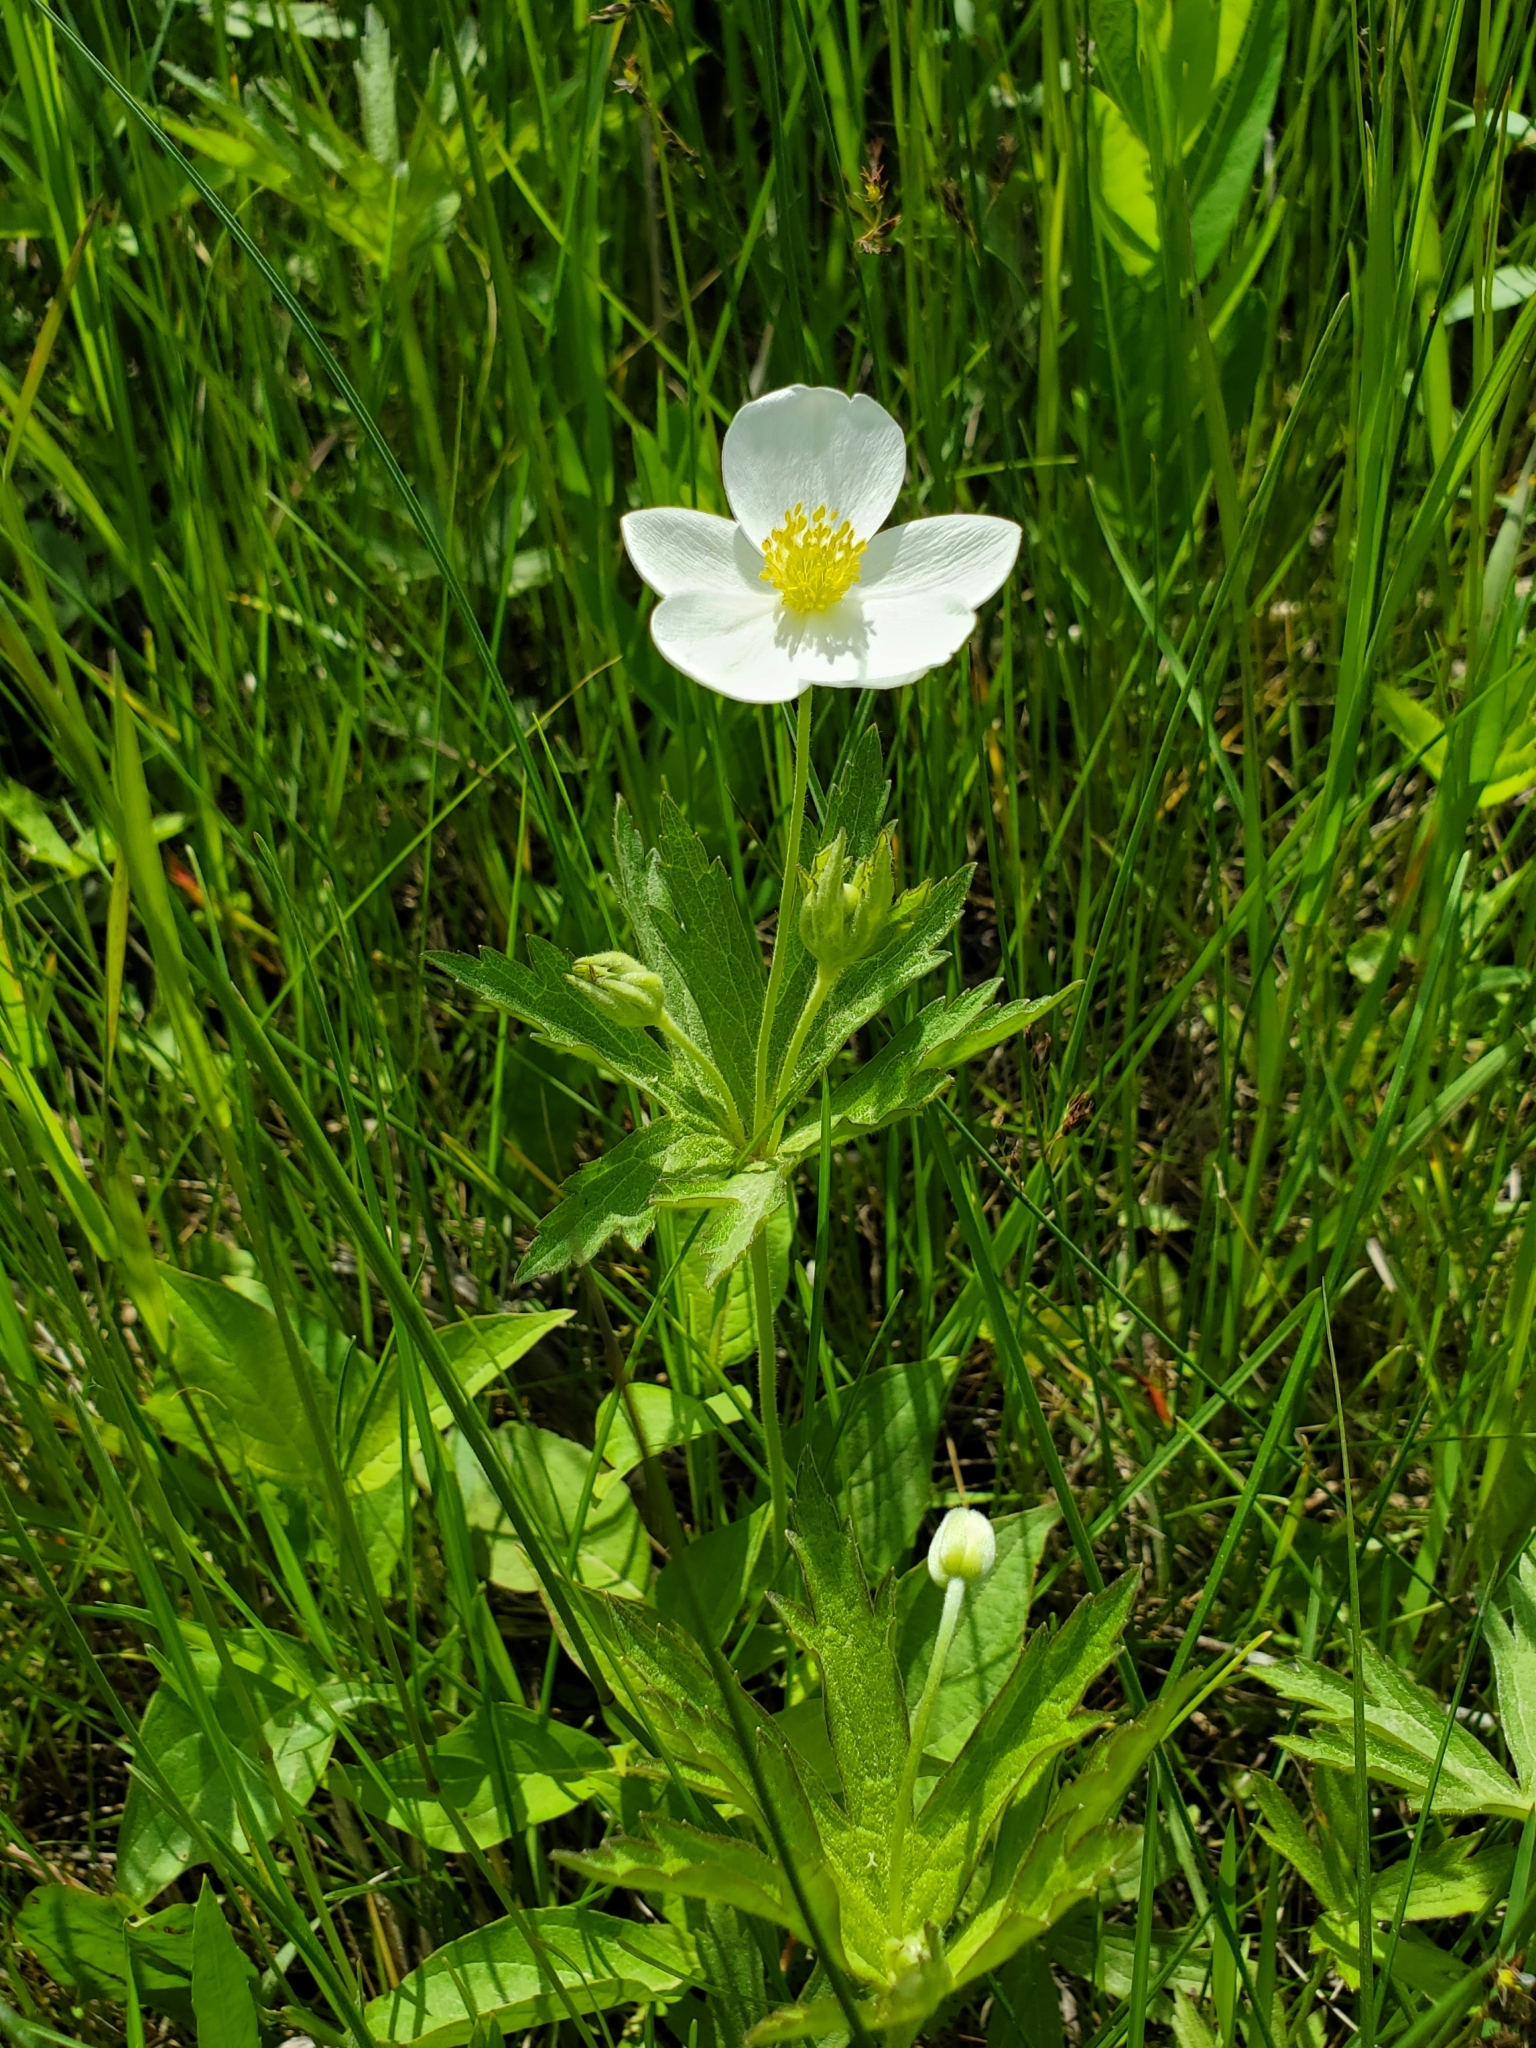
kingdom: Plantae
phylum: Tracheophyta
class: Magnoliopsida
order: Ranunculales
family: Ranunculaceae
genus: Anemonastrum
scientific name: Anemonastrum canadense
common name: Canada anemone
